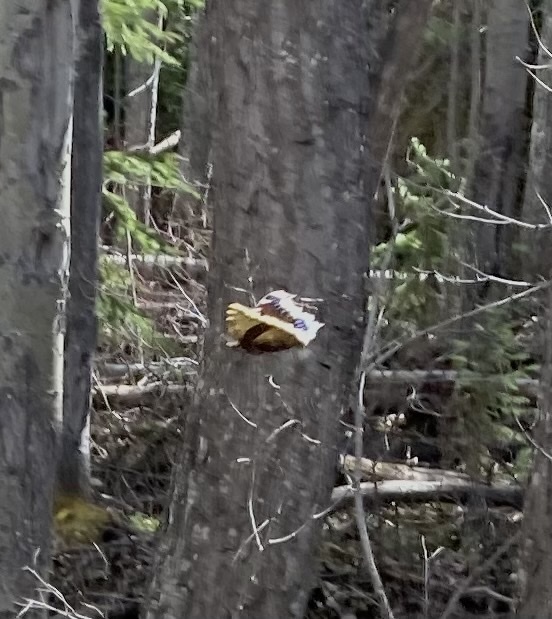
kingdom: Animalia
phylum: Arthropoda
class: Insecta
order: Lepidoptera
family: Nymphalidae
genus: Nymphalis
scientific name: Nymphalis antiopa
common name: Camberwell beauty
